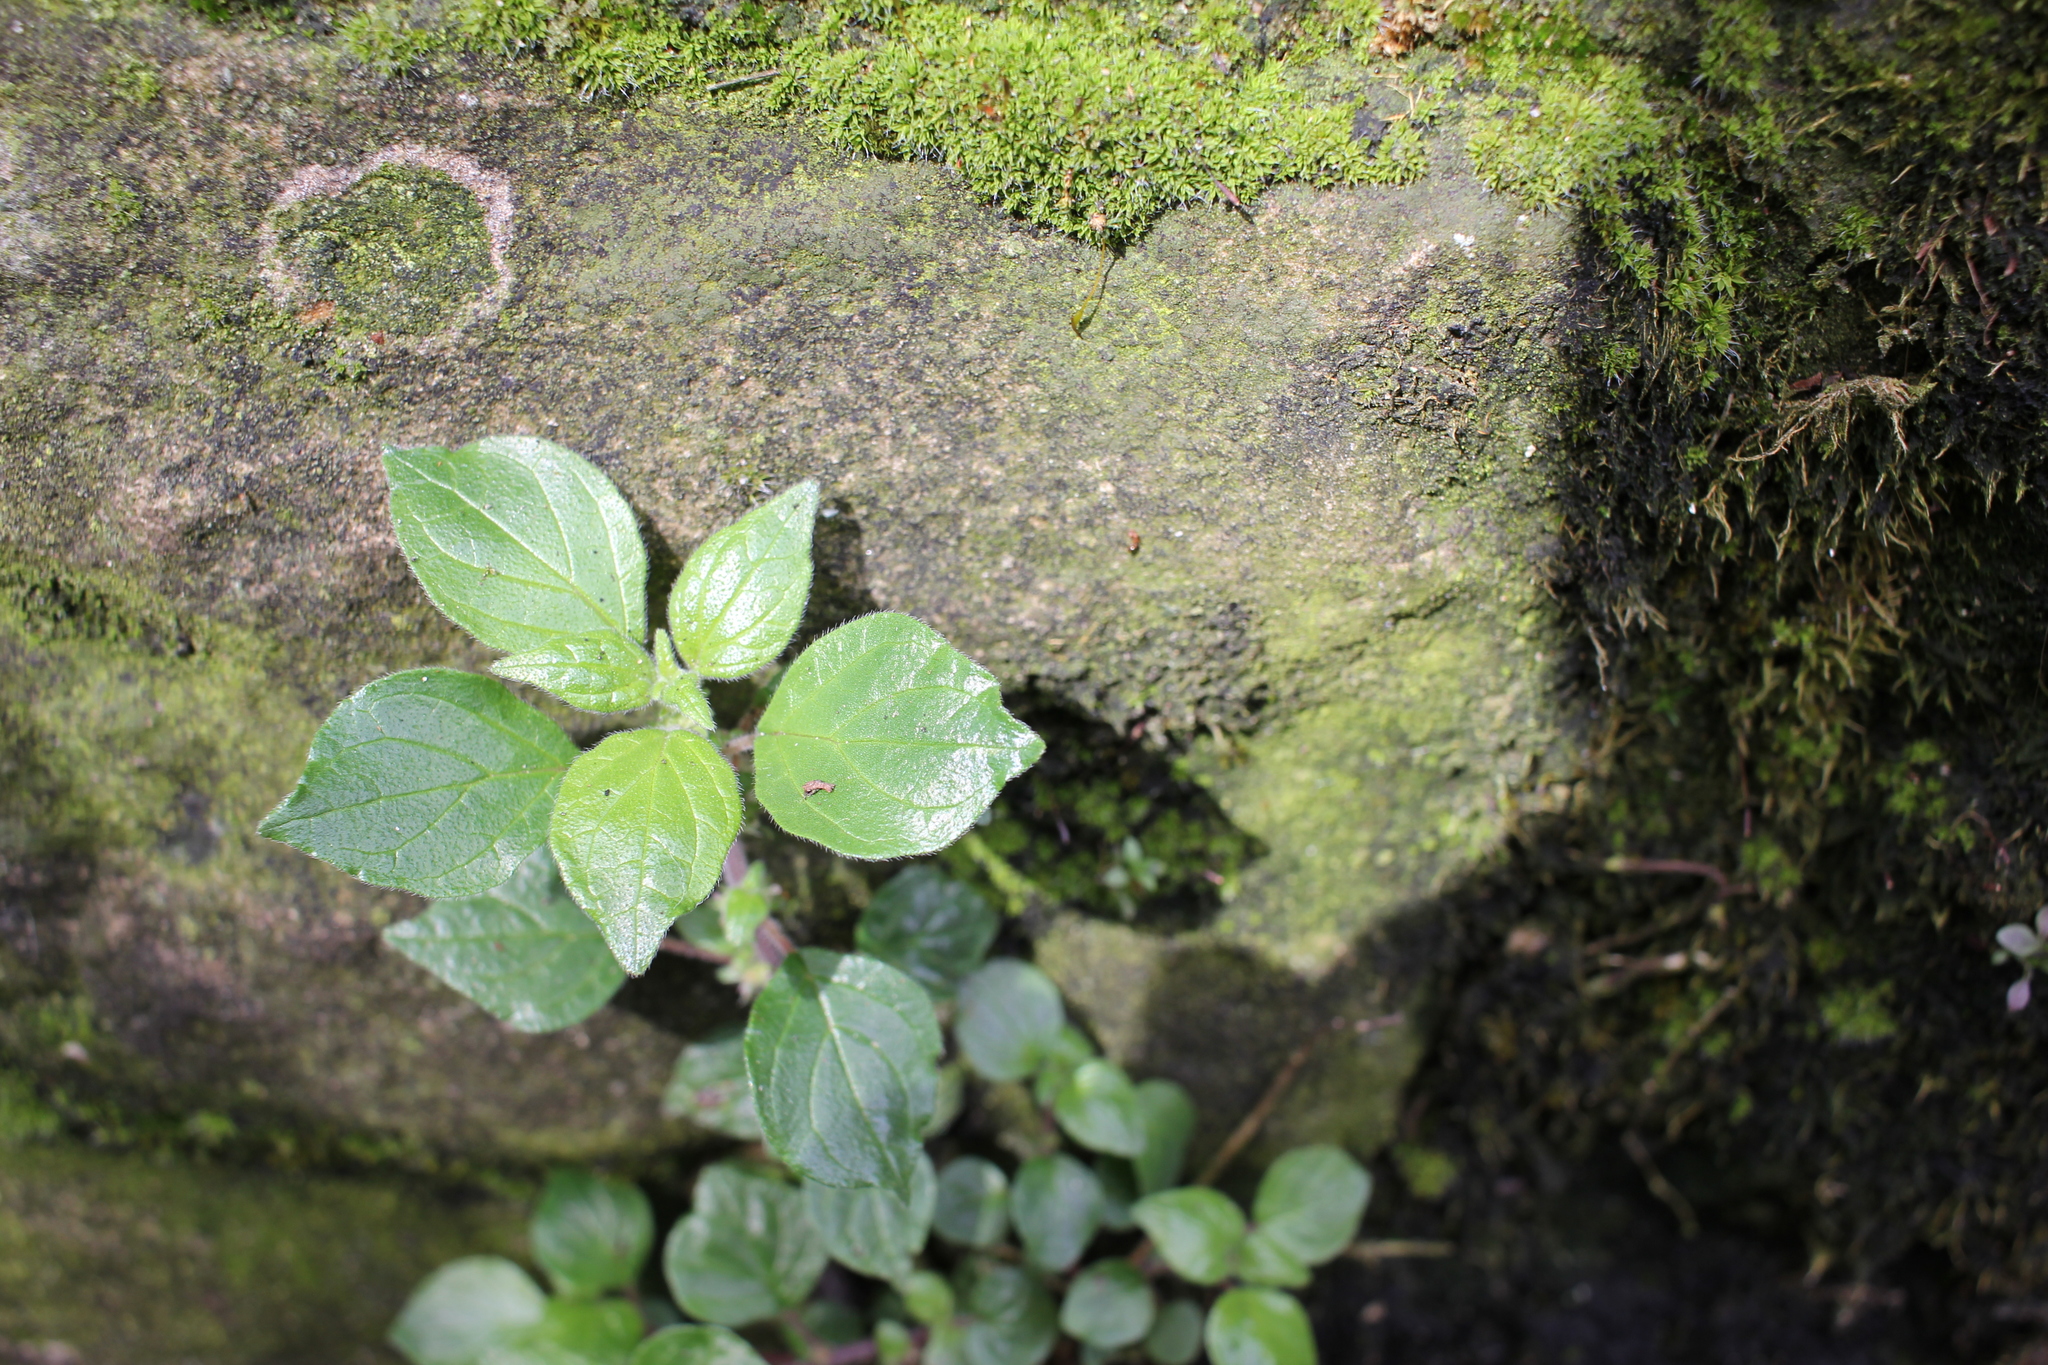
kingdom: Plantae
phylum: Tracheophyta
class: Magnoliopsida
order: Rosales
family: Urticaceae
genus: Parietaria
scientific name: Parietaria judaica
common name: Pellitory-of-the-wall
